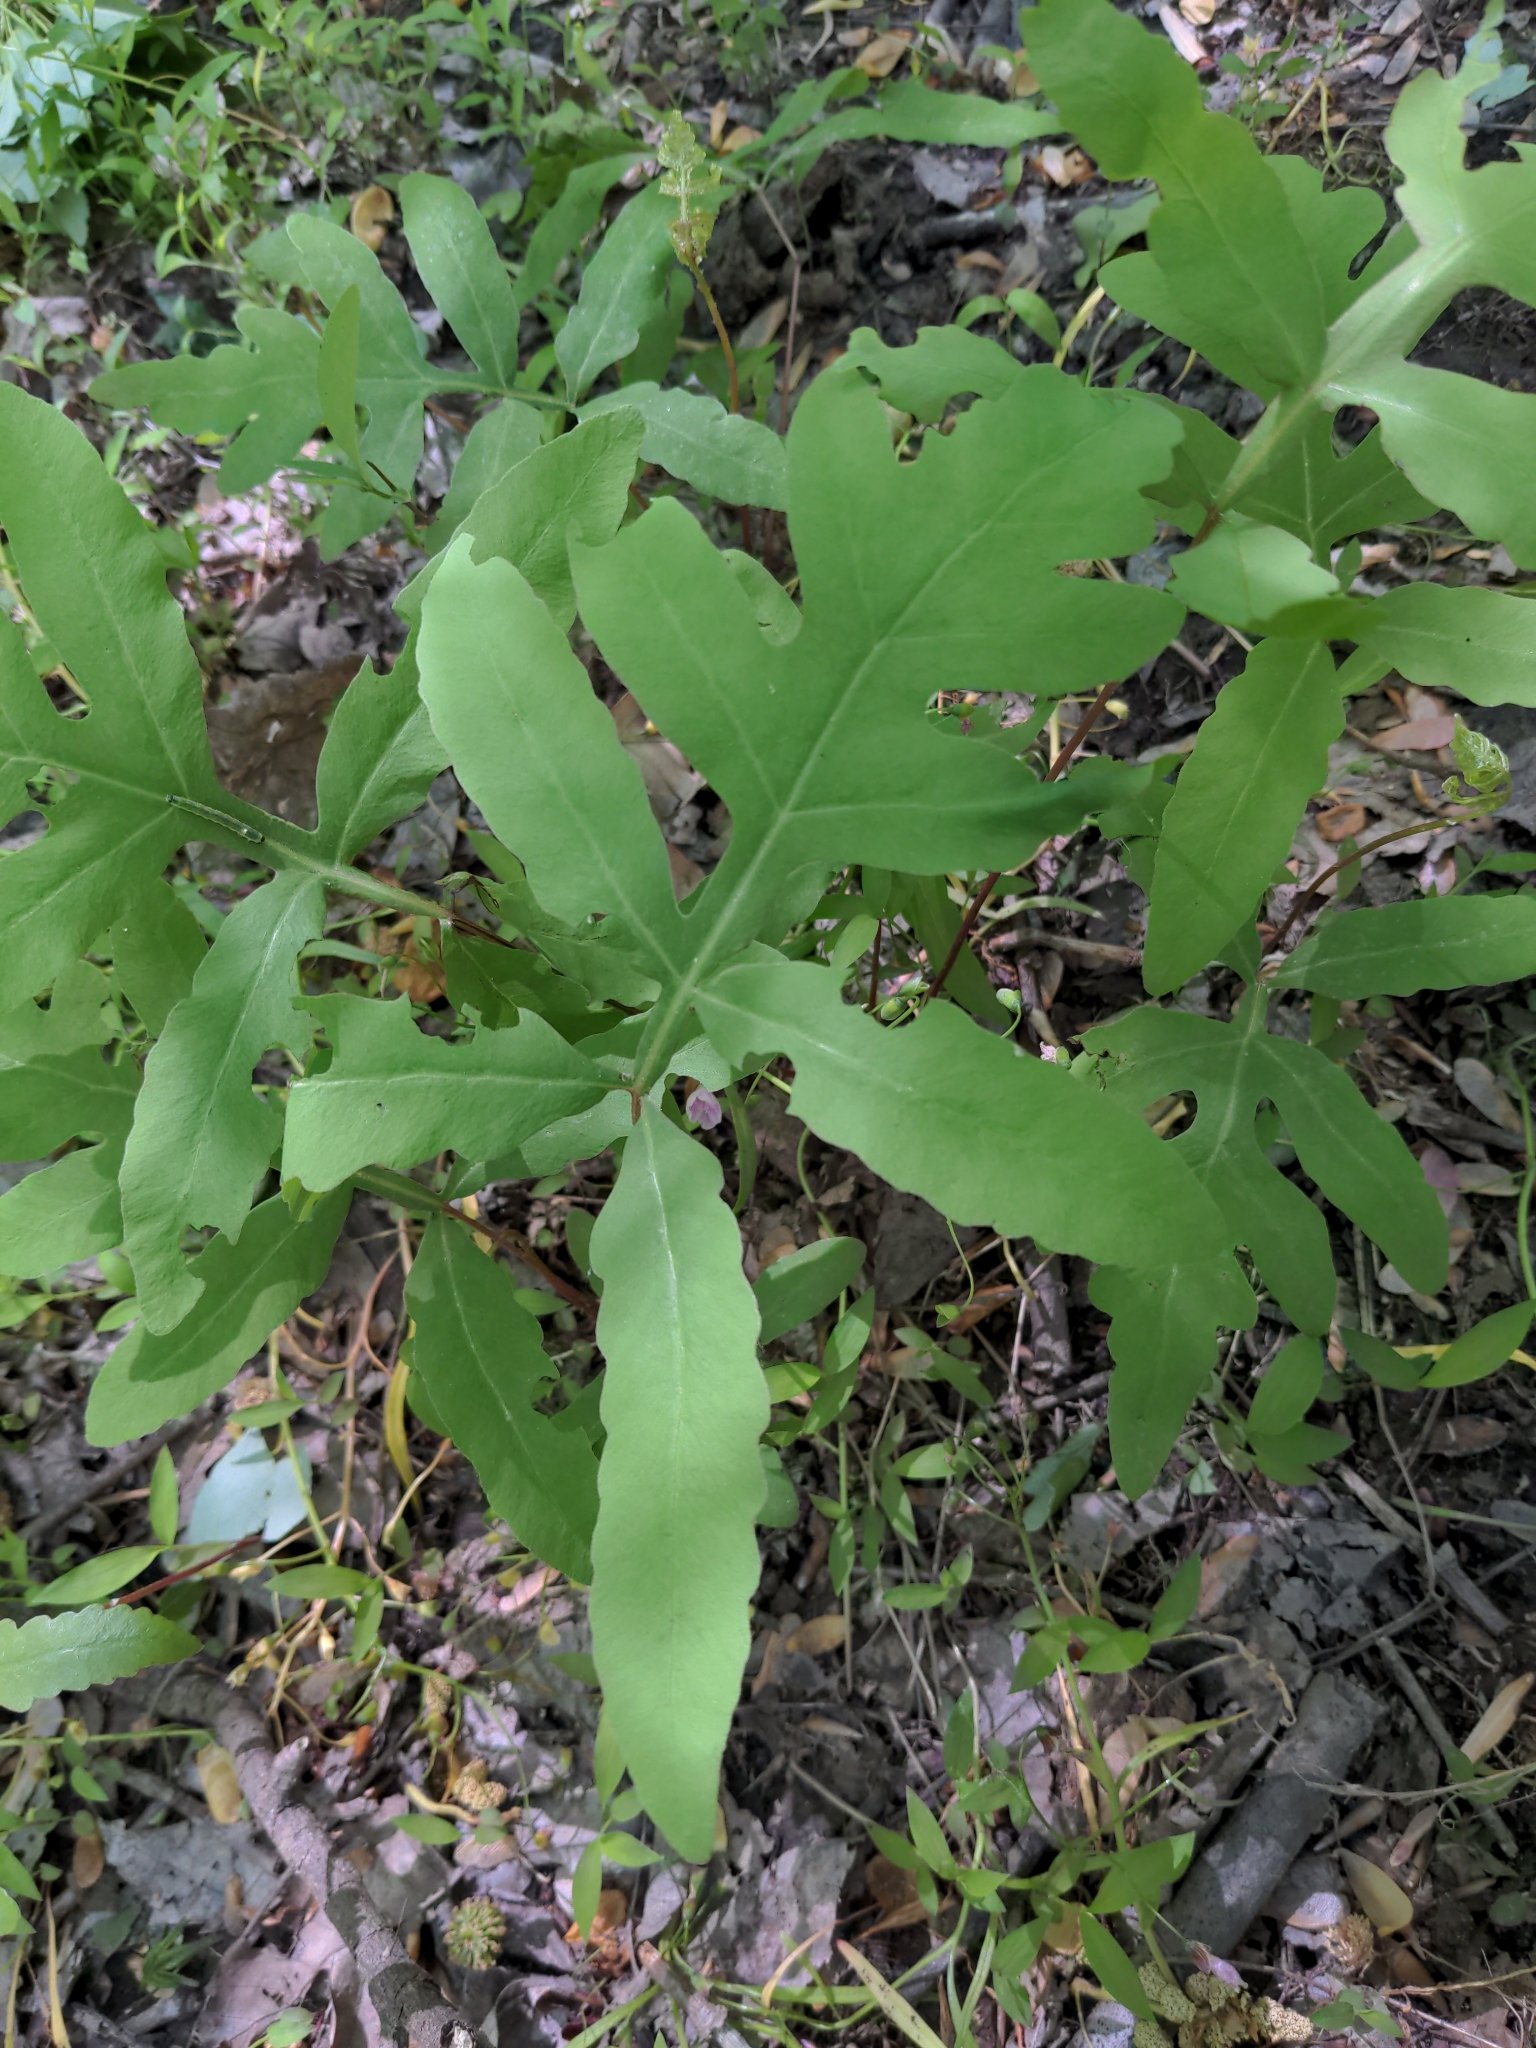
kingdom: Plantae
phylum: Tracheophyta
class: Polypodiopsida
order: Polypodiales
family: Onocleaceae
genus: Onoclea
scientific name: Onoclea sensibilis
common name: Sensitive fern
